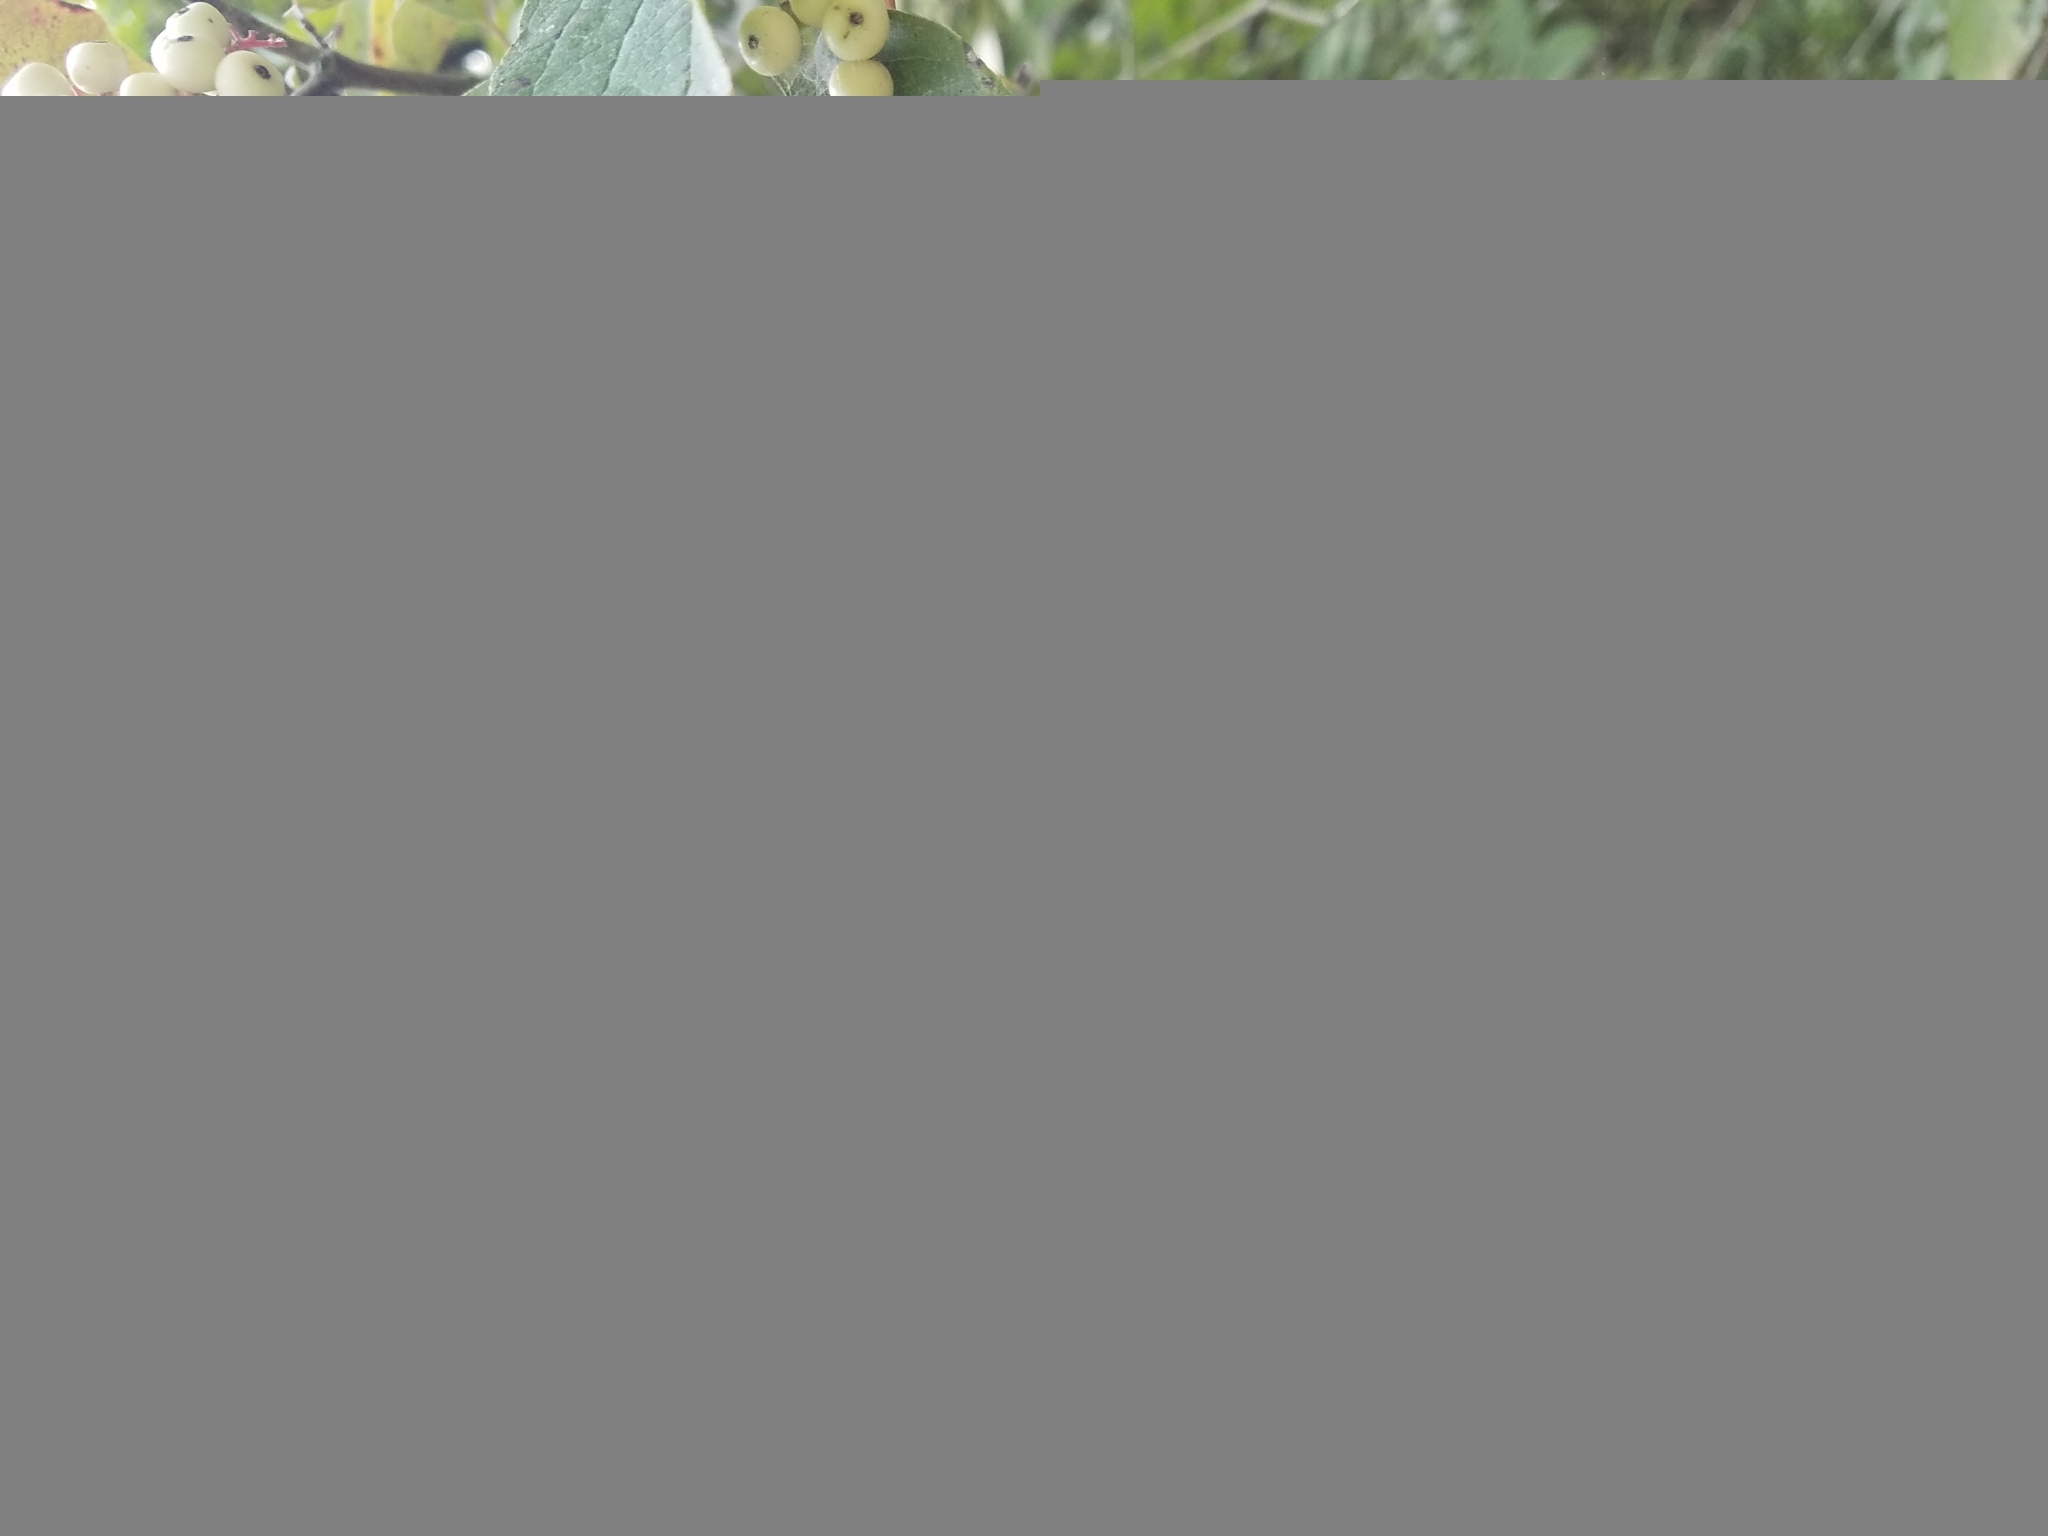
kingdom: Plantae
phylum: Tracheophyta
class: Magnoliopsida
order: Cornales
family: Cornaceae
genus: Cornus
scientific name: Cornus racemosa
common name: Panicled dogwood
